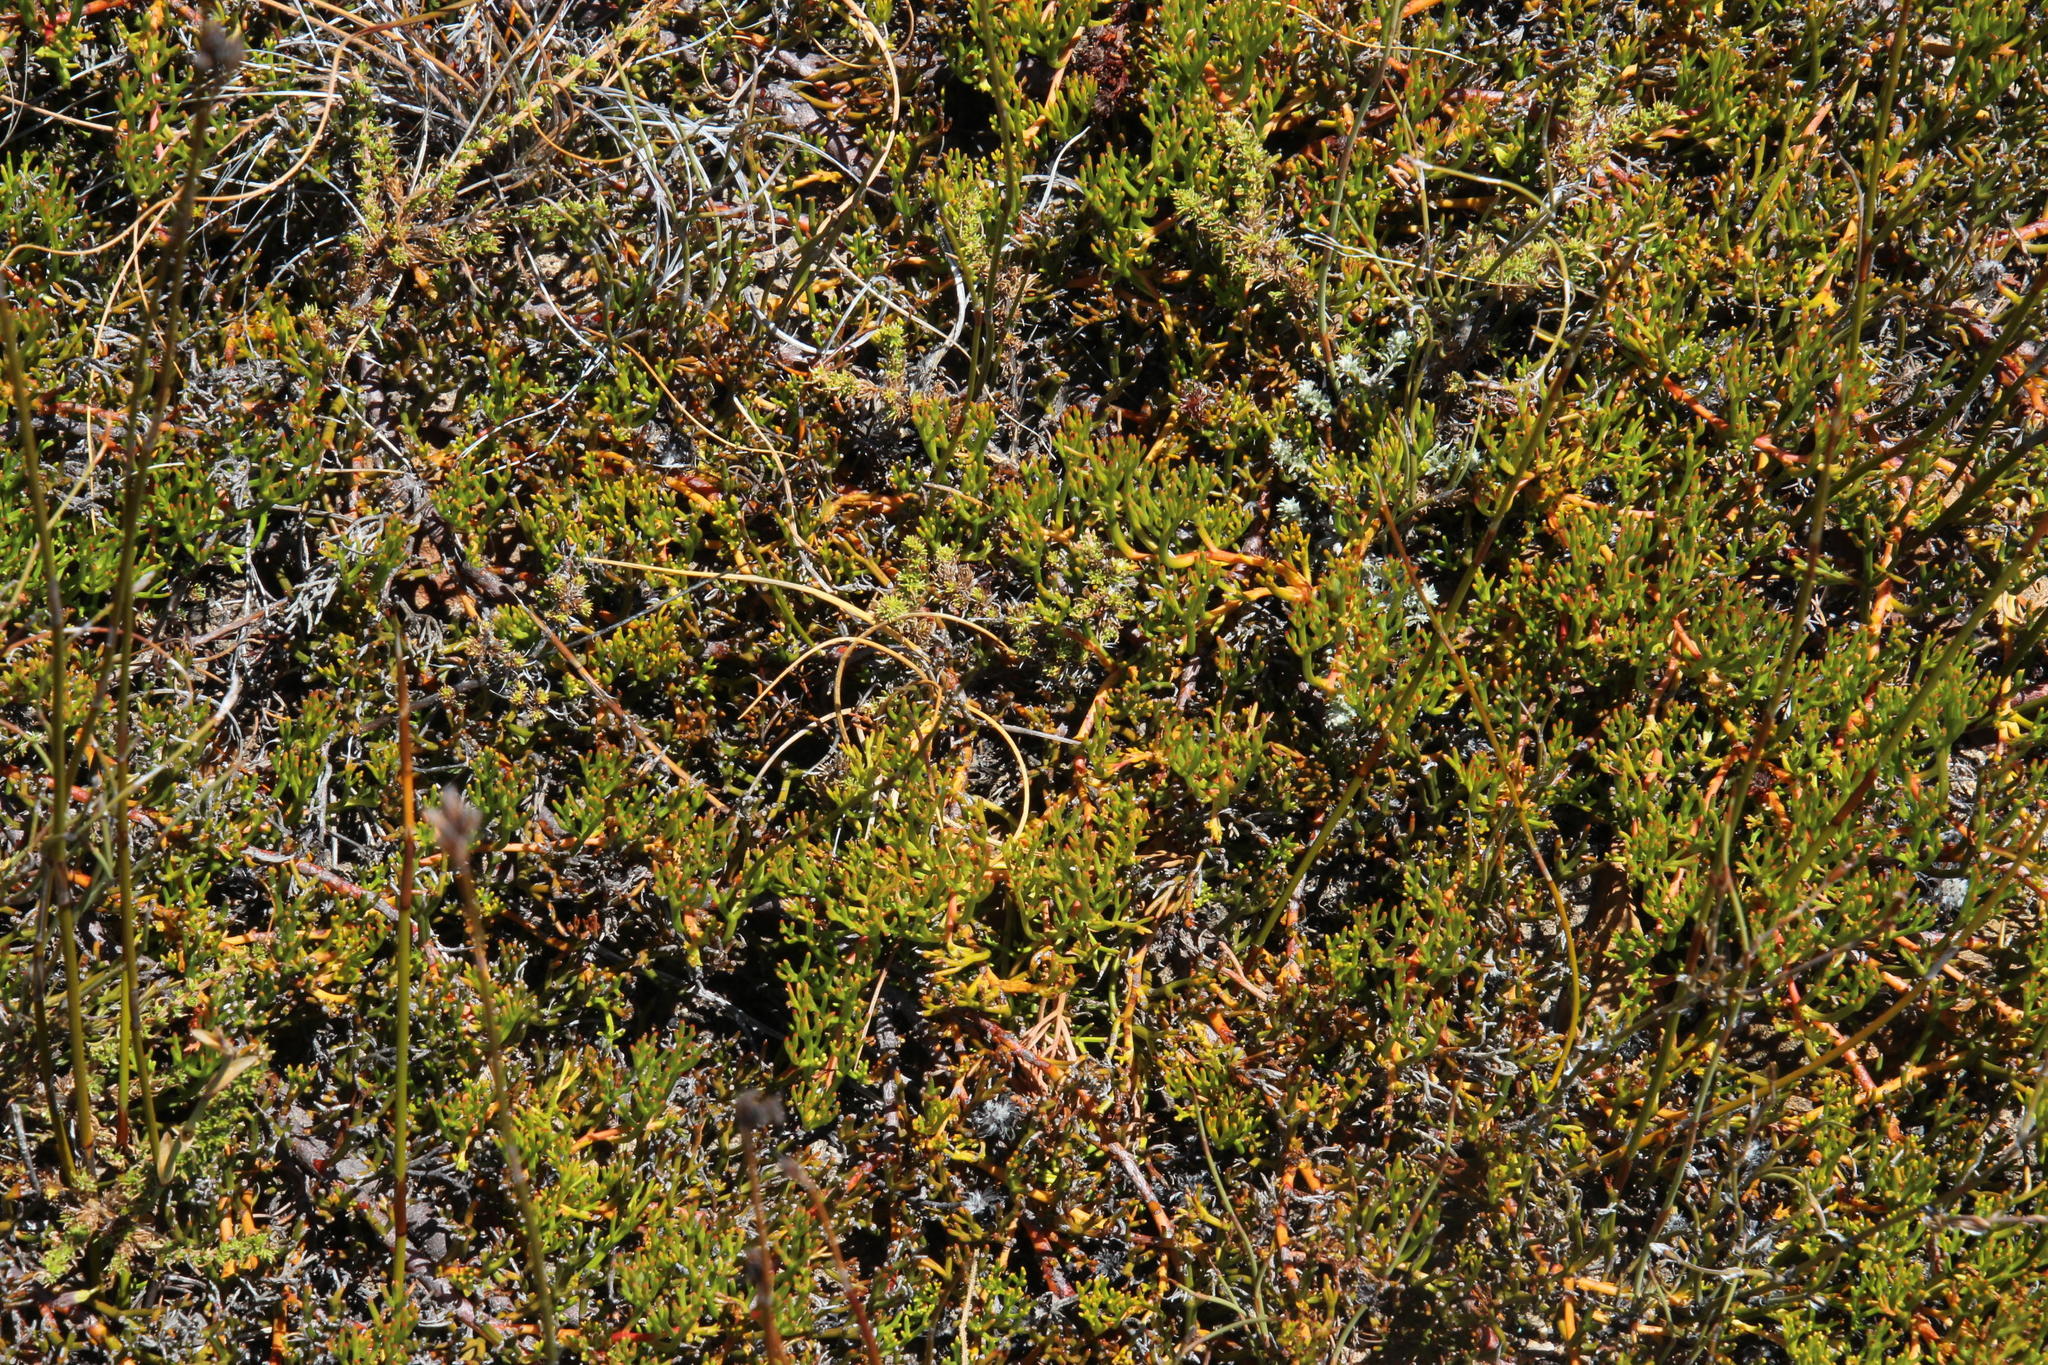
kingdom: Plantae
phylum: Tracheophyta
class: Magnoliopsida
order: Proteales
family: Proteaceae
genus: Serruria
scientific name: Serruria cygnea
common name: Swan spiderhead
